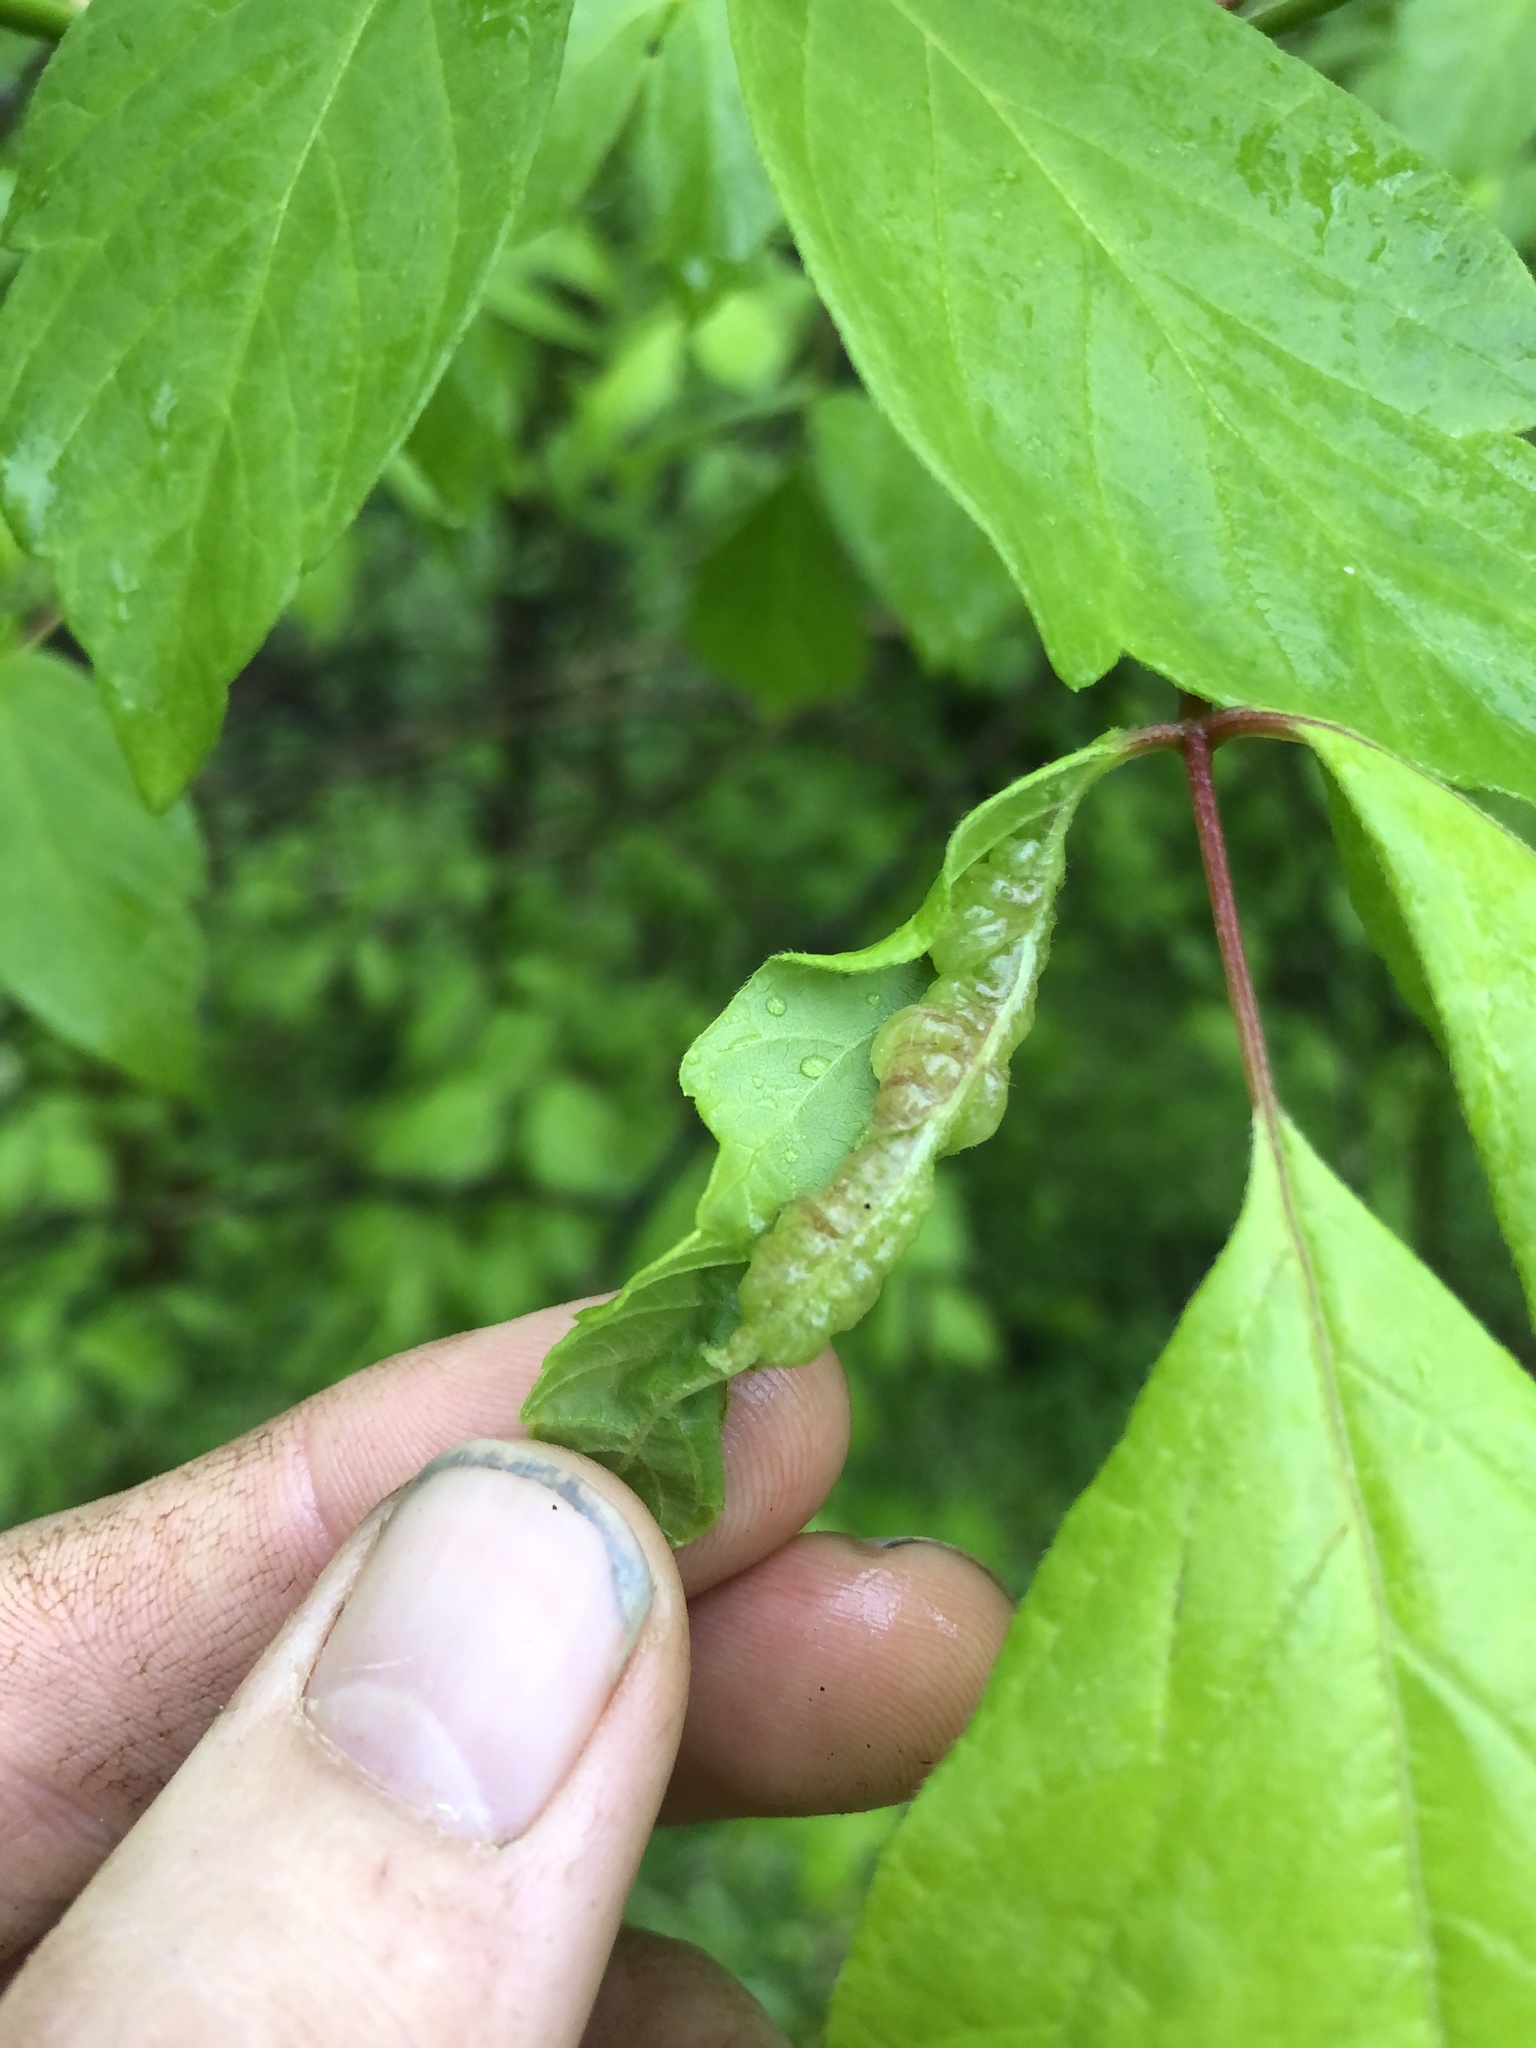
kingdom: Animalia
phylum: Arthropoda
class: Insecta
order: Diptera
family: Cecidomyiidae
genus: Contarinia
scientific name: Contarinia negundinis
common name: Boxelder budgall midge
